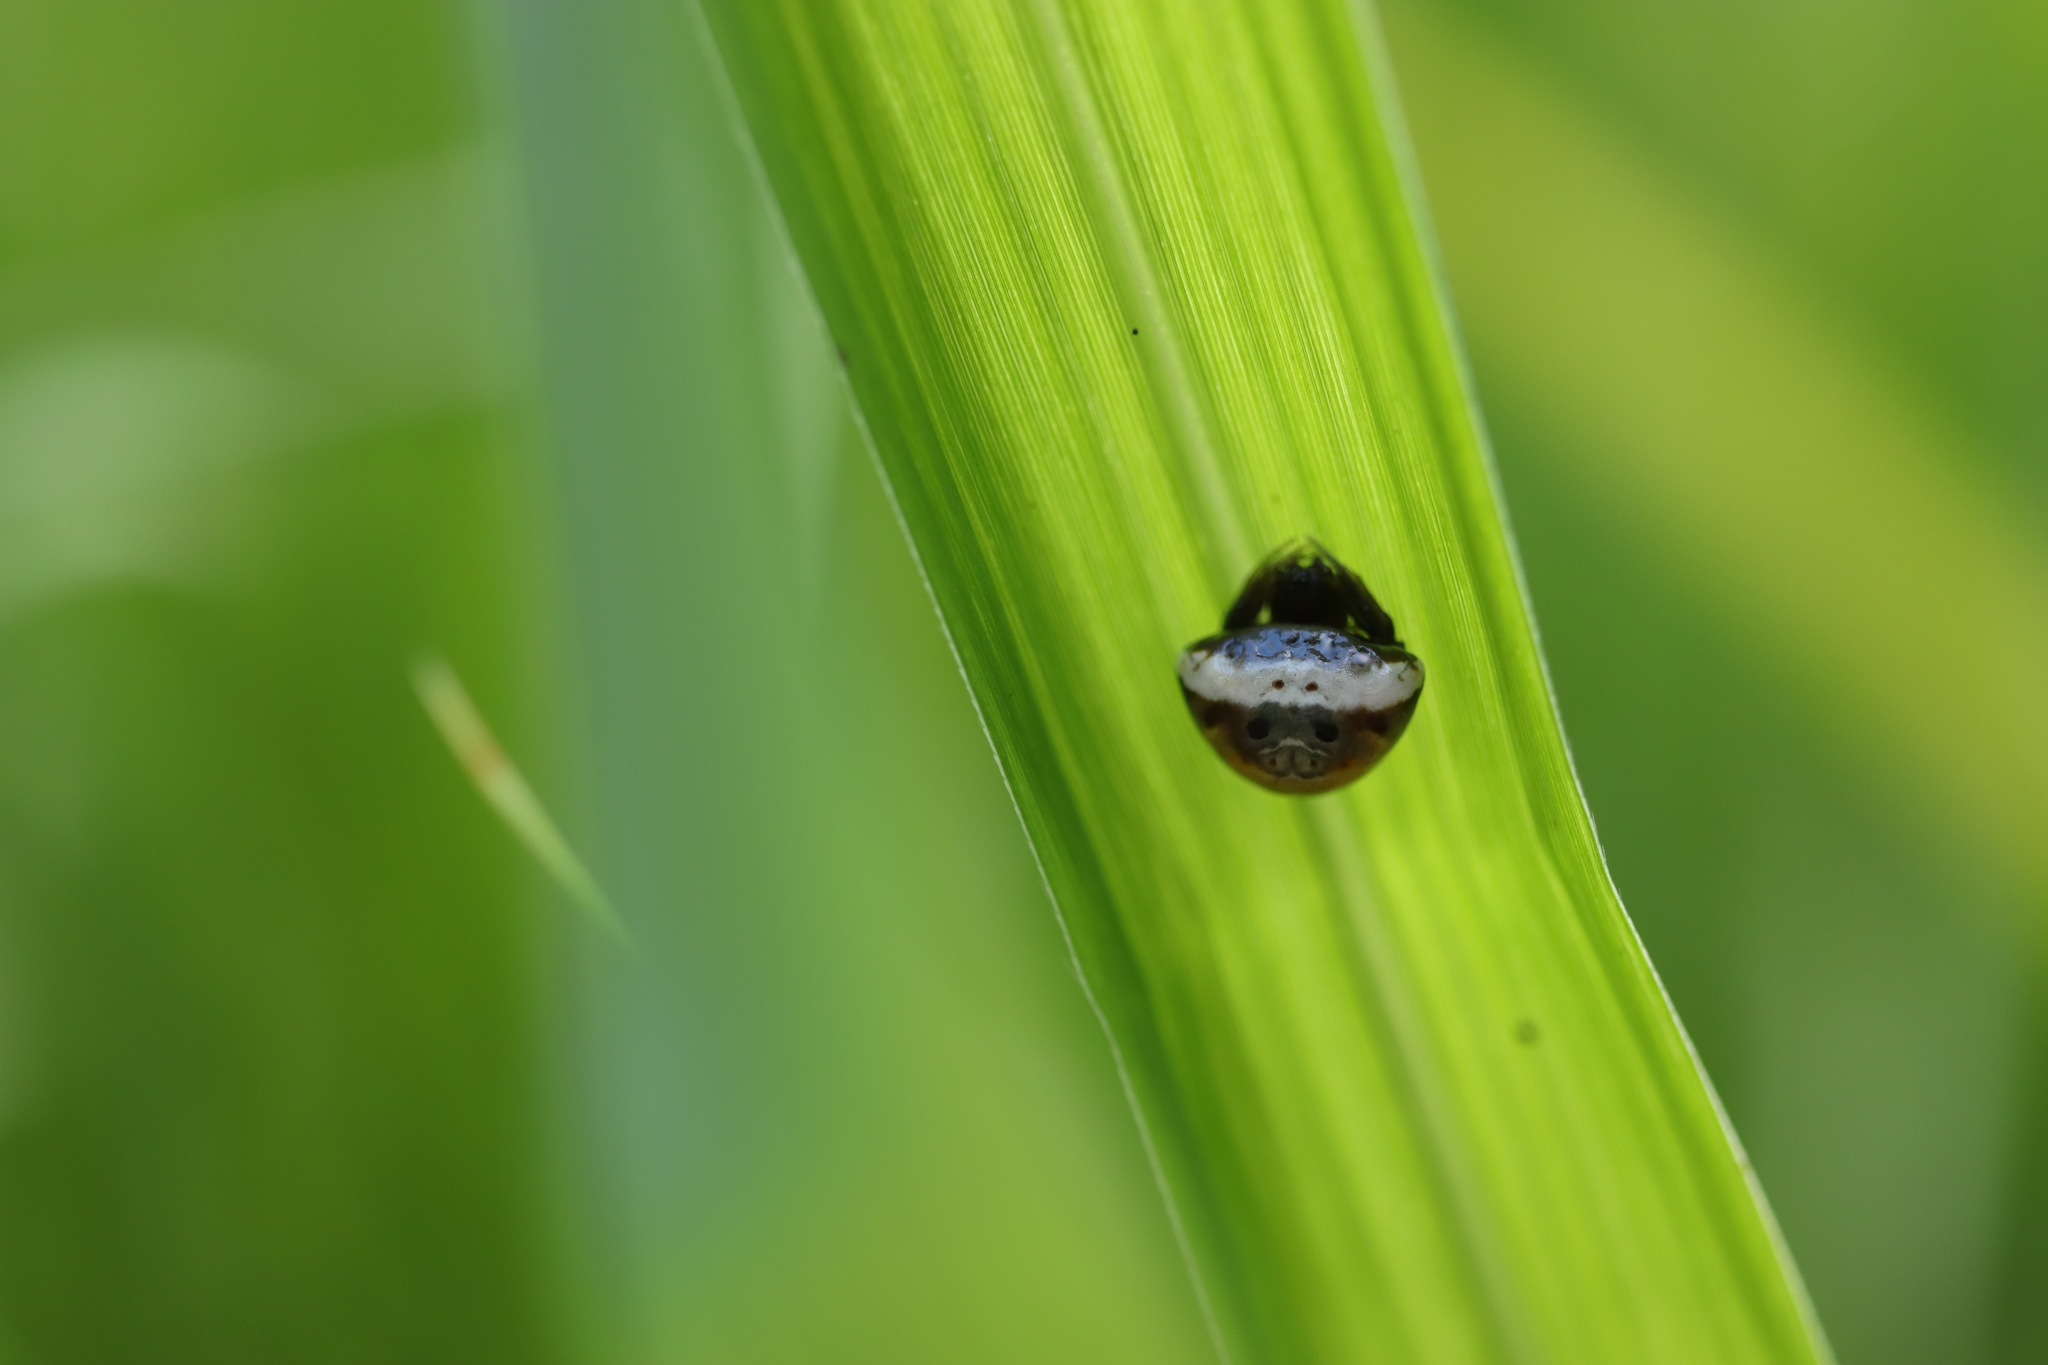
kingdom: Animalia
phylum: Arthropoda
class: Arachnida
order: Araneae
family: Araneidae
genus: Cyrtarachne
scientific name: Cyrtarachne nagasakiensis
